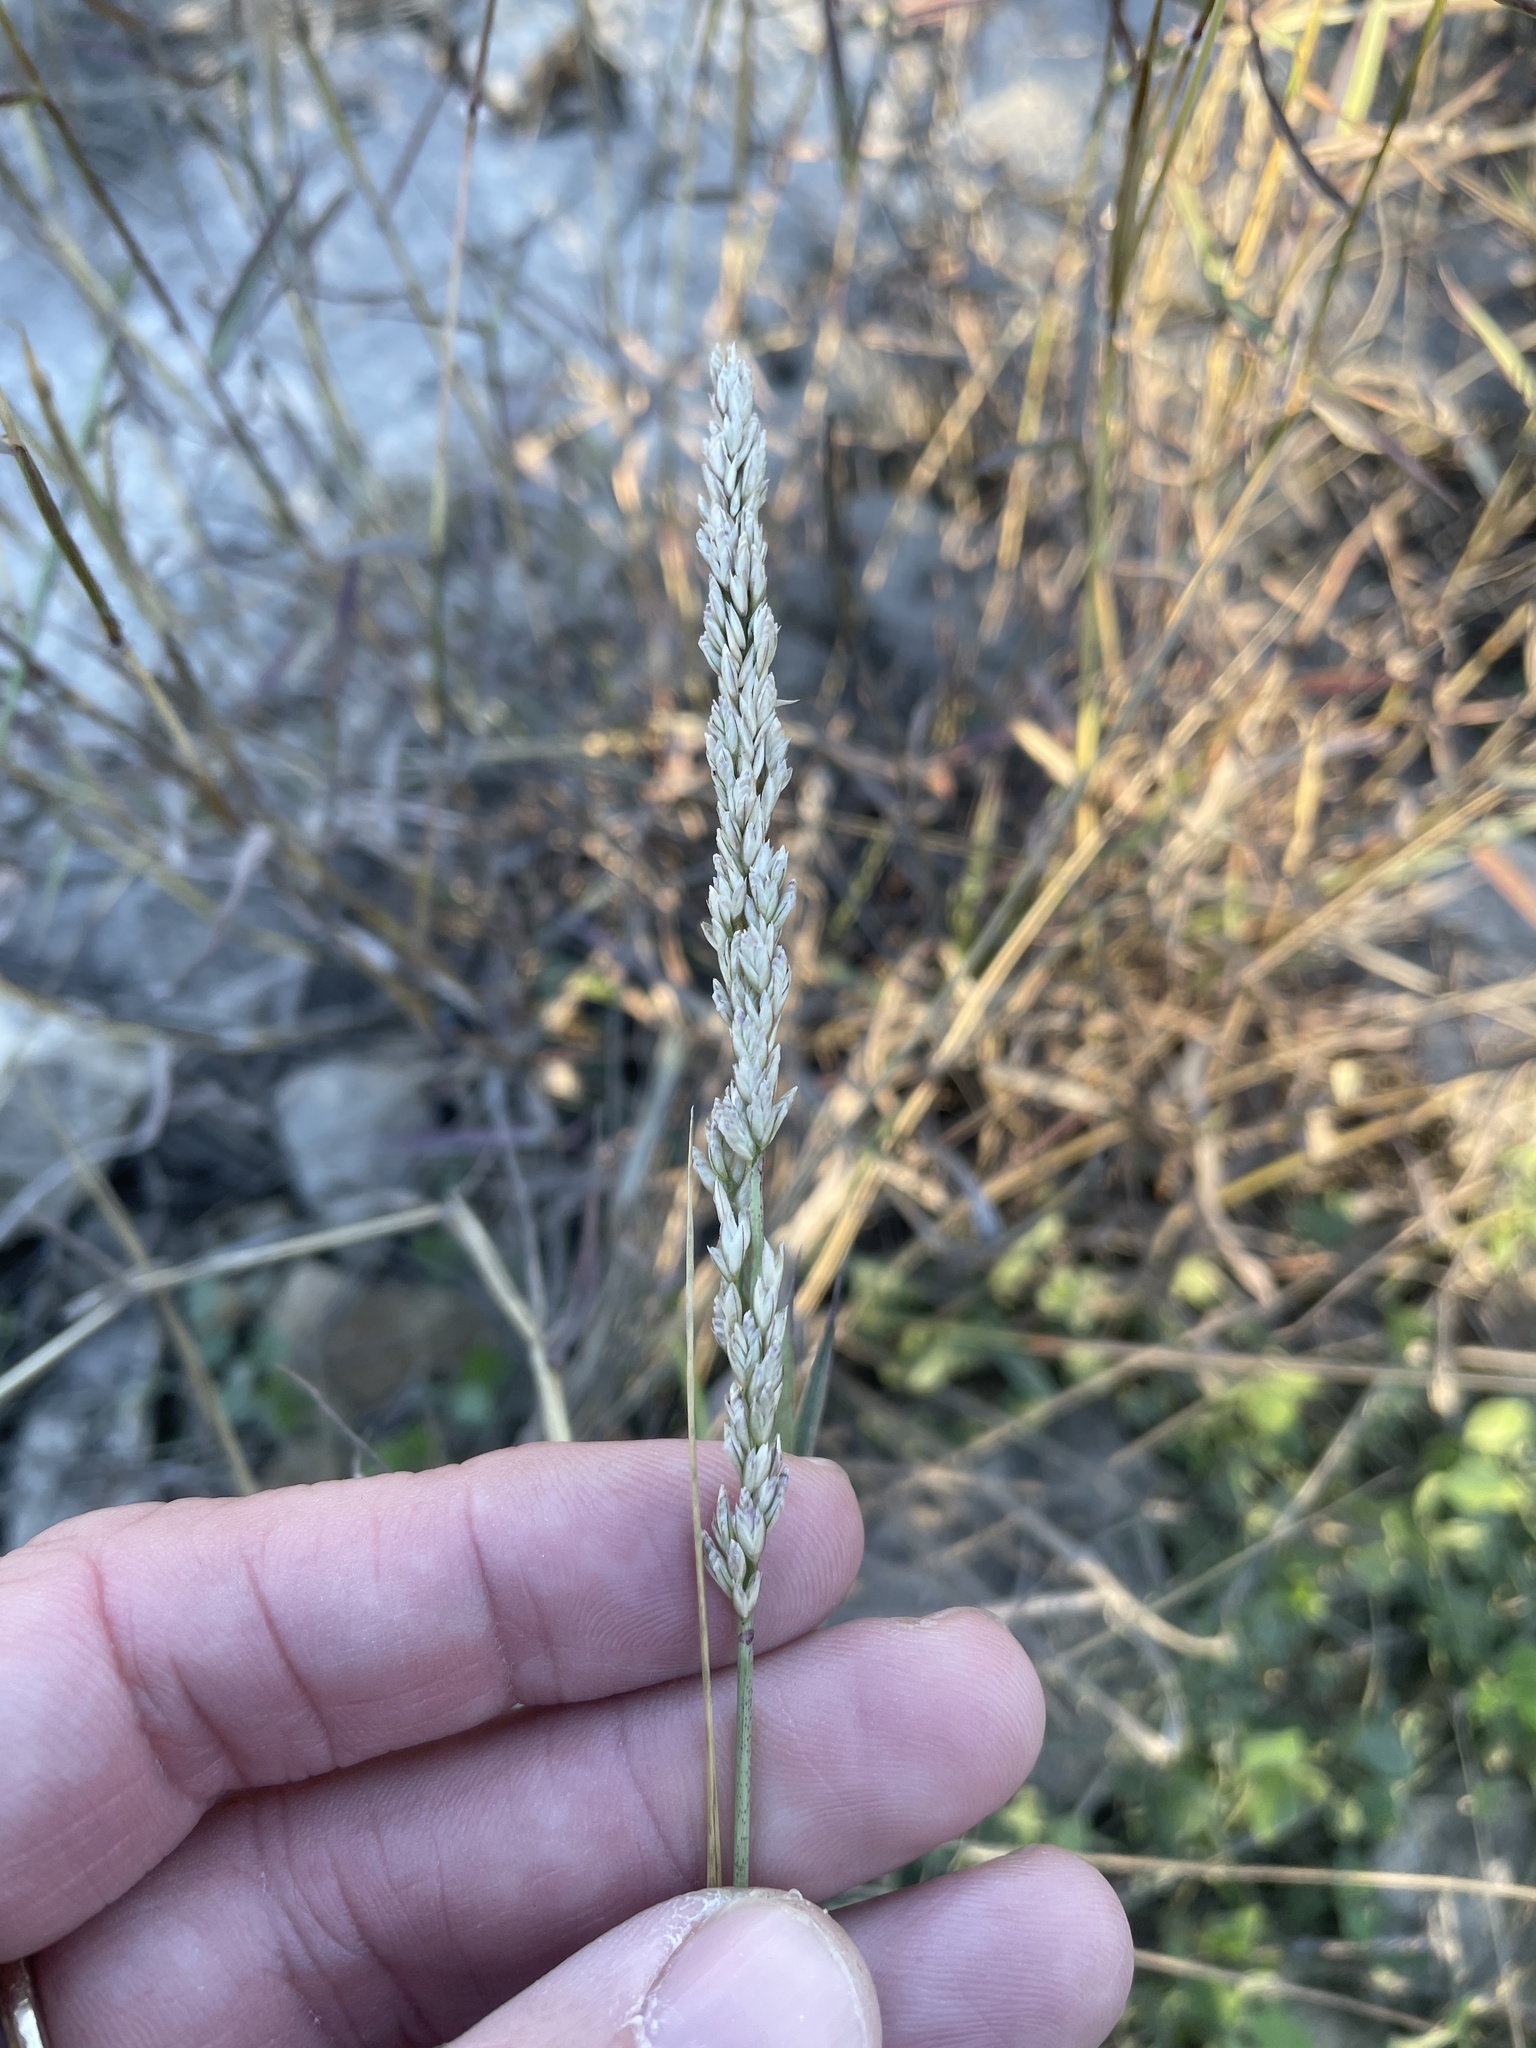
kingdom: Plantae
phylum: Tracheophyta
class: Liliopsida
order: Poales
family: Poaceae
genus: Tridens
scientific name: Tridens albescens
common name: White tridens
